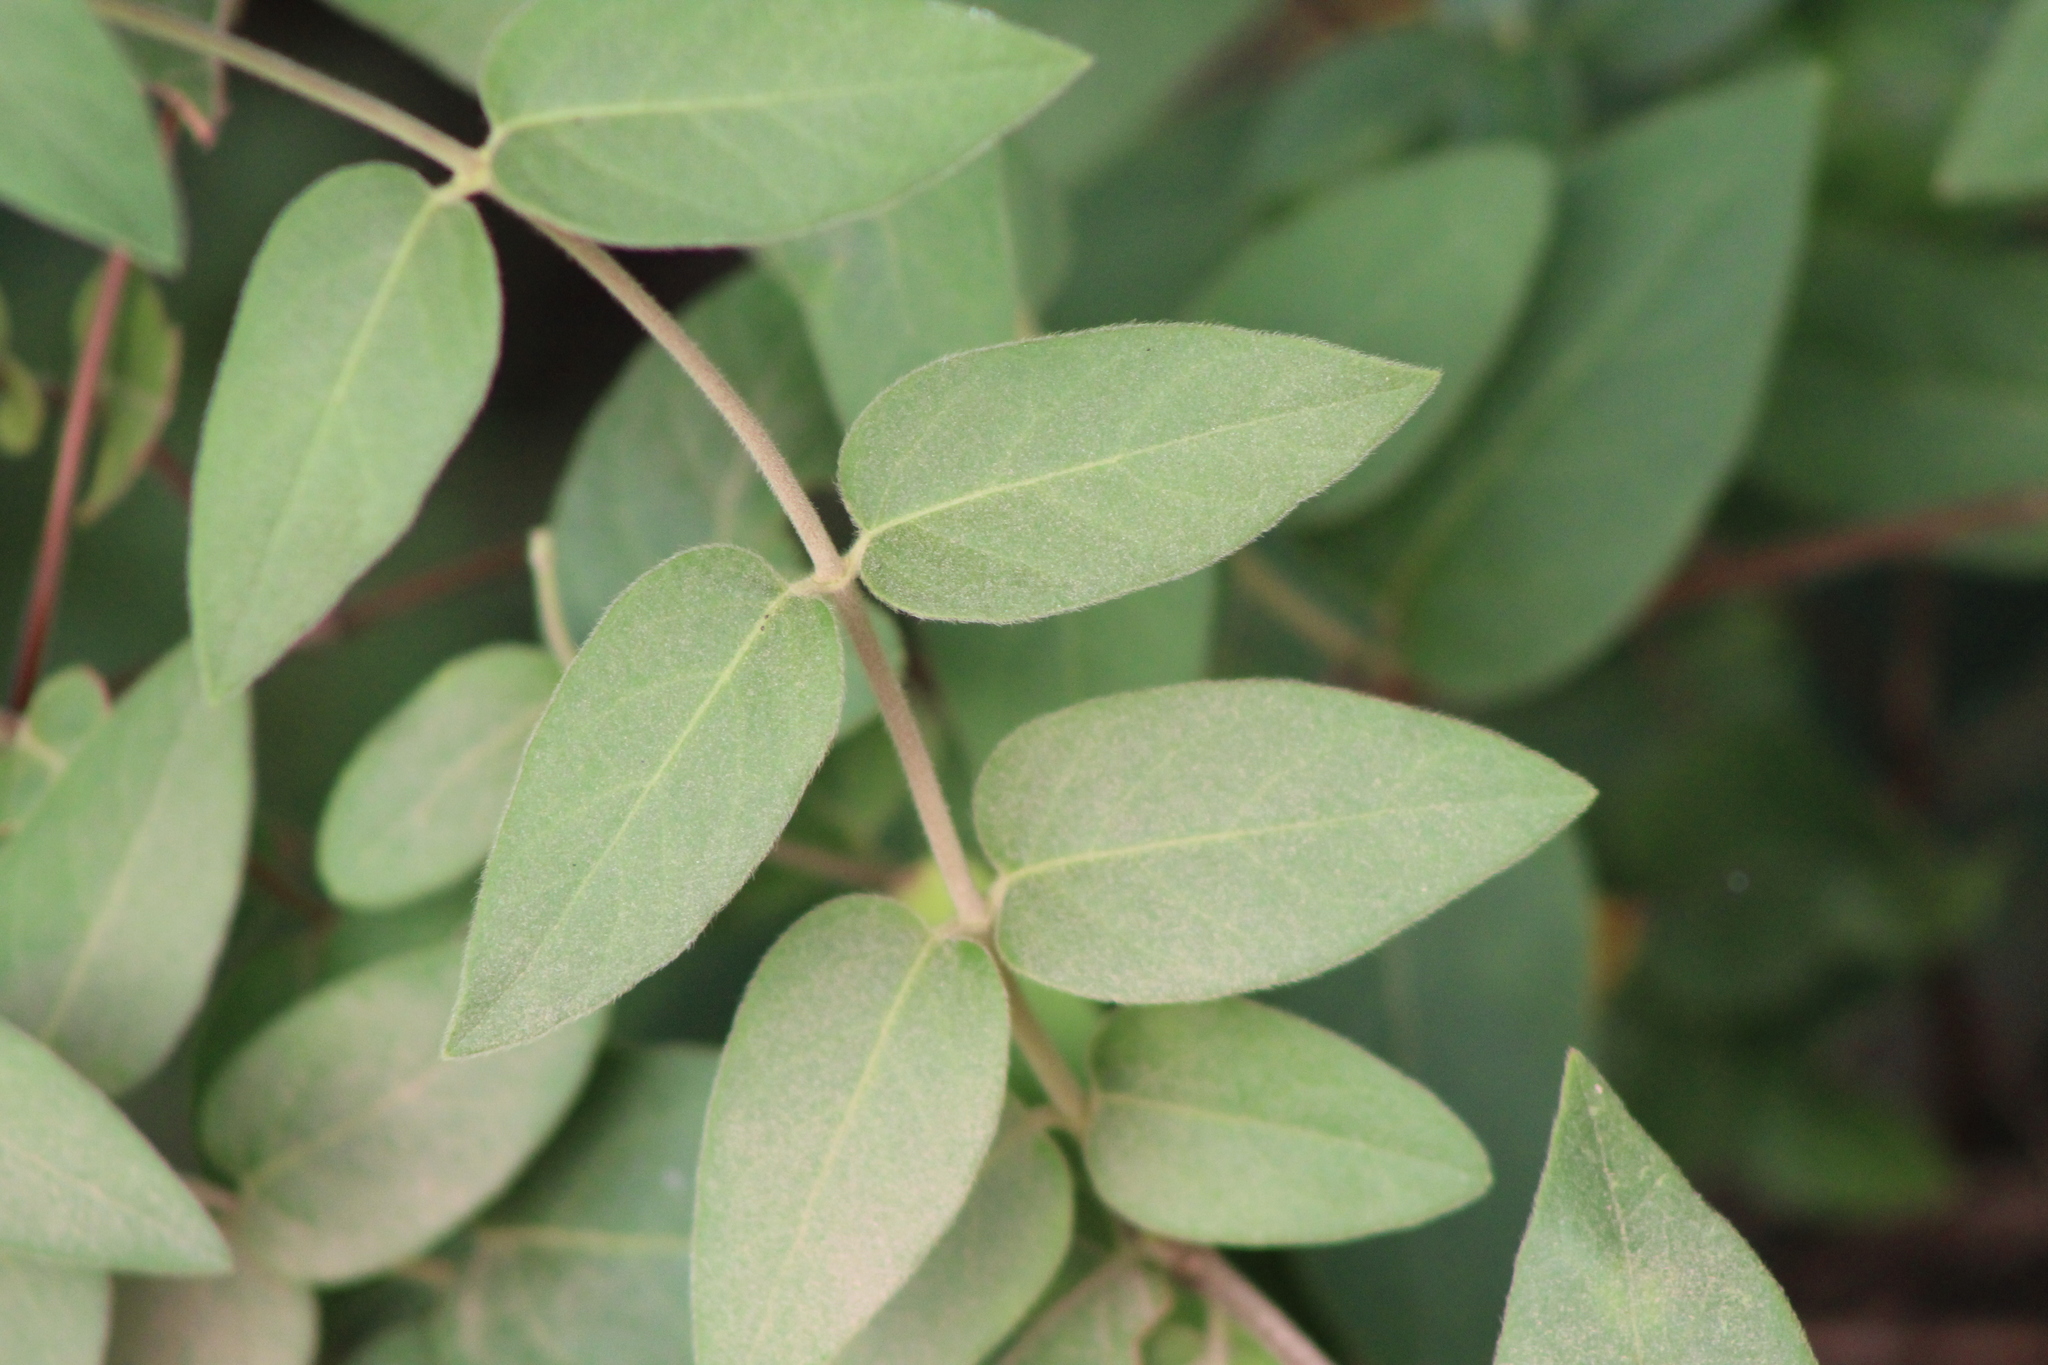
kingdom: Plantae
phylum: Tracheophyta
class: Magnoliopsida
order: Dipsacales
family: Caprifoliaceae
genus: Lonicera
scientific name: Lonicera japonica
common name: Japanese honeysuckle
